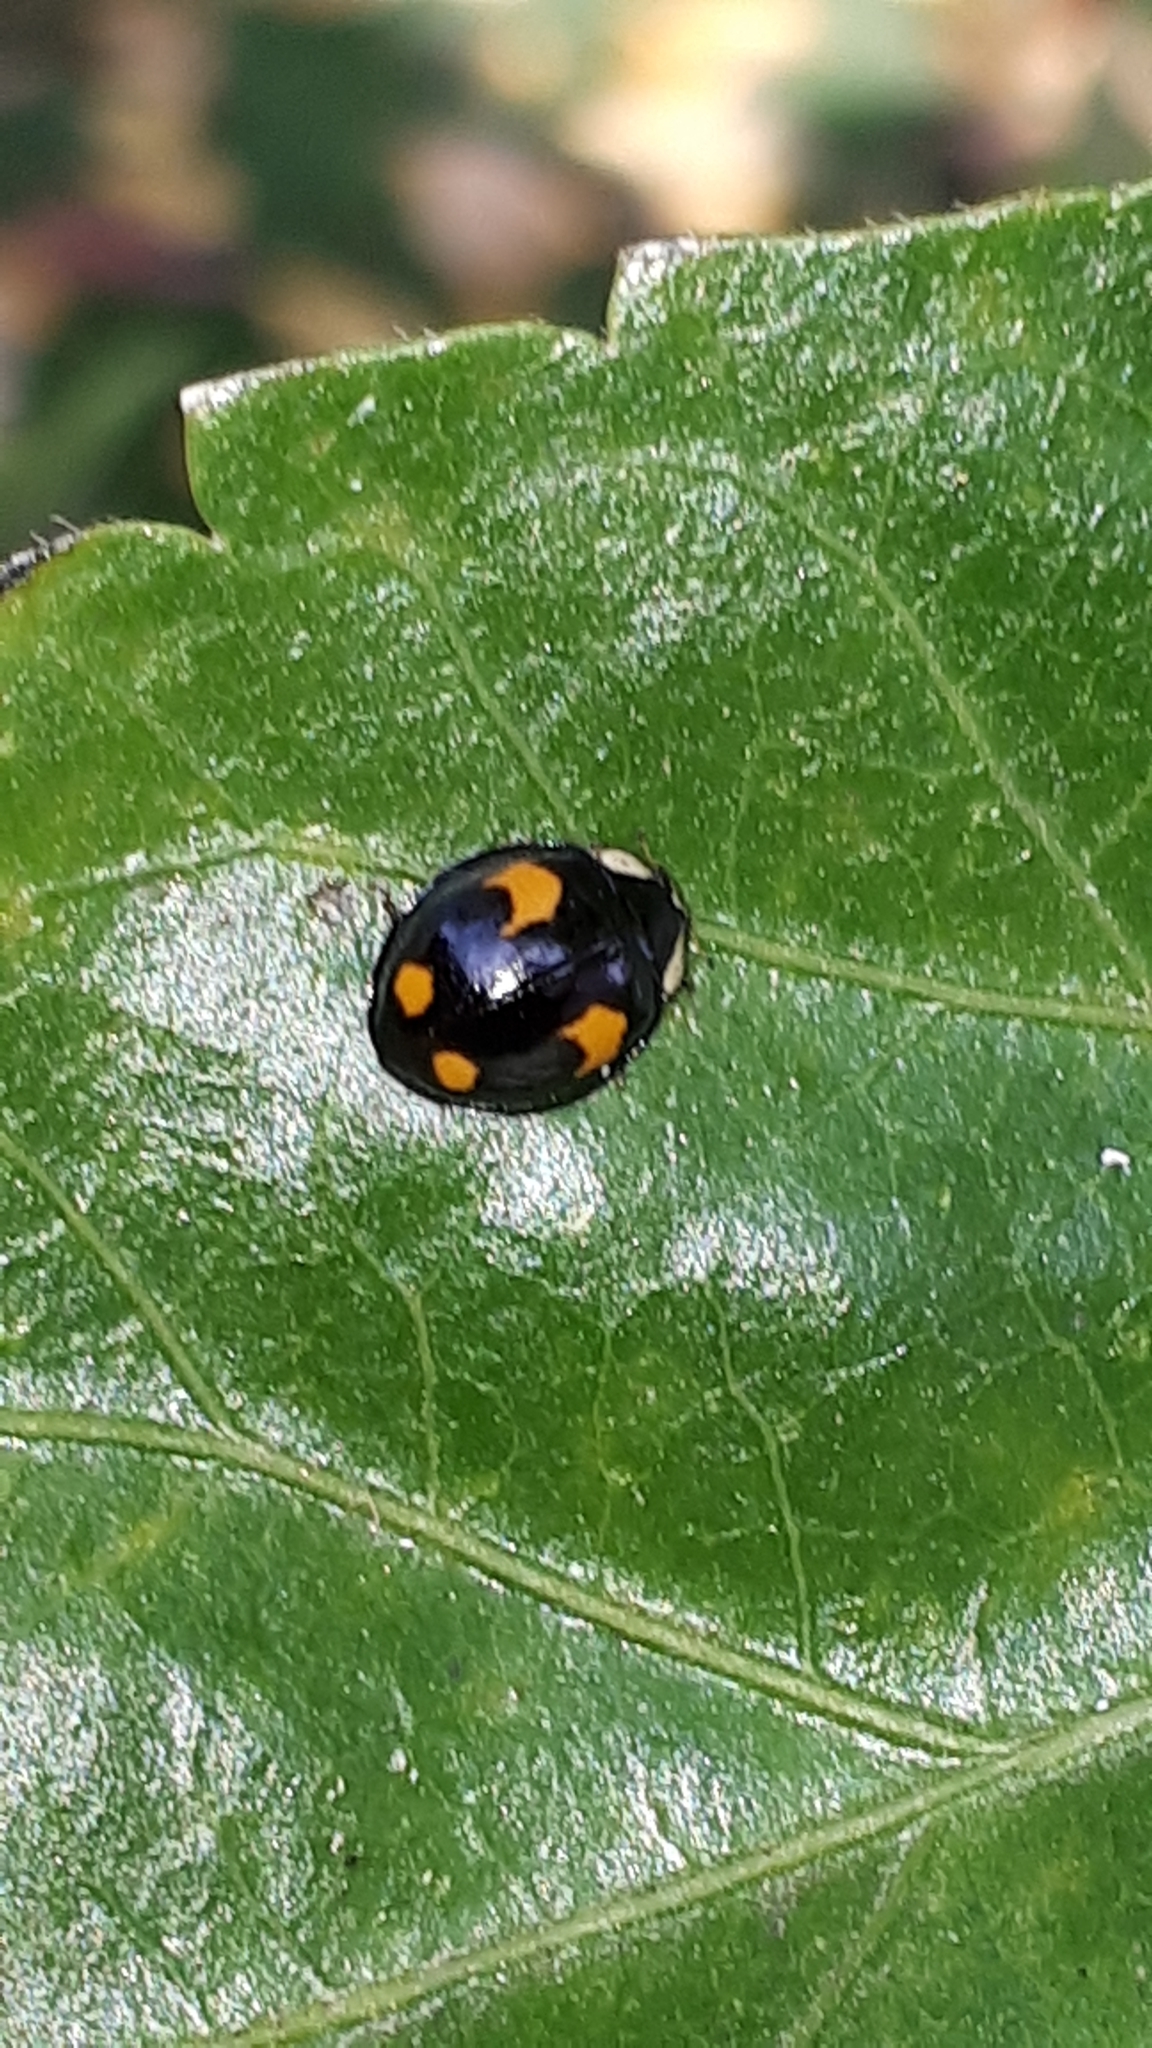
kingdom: Animalia
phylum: Arthropoda
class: Insecta
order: Coleoptera
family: Coccinellidae
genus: Harmonia
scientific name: Harmonia axyridis
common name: Harlequin ladybird
